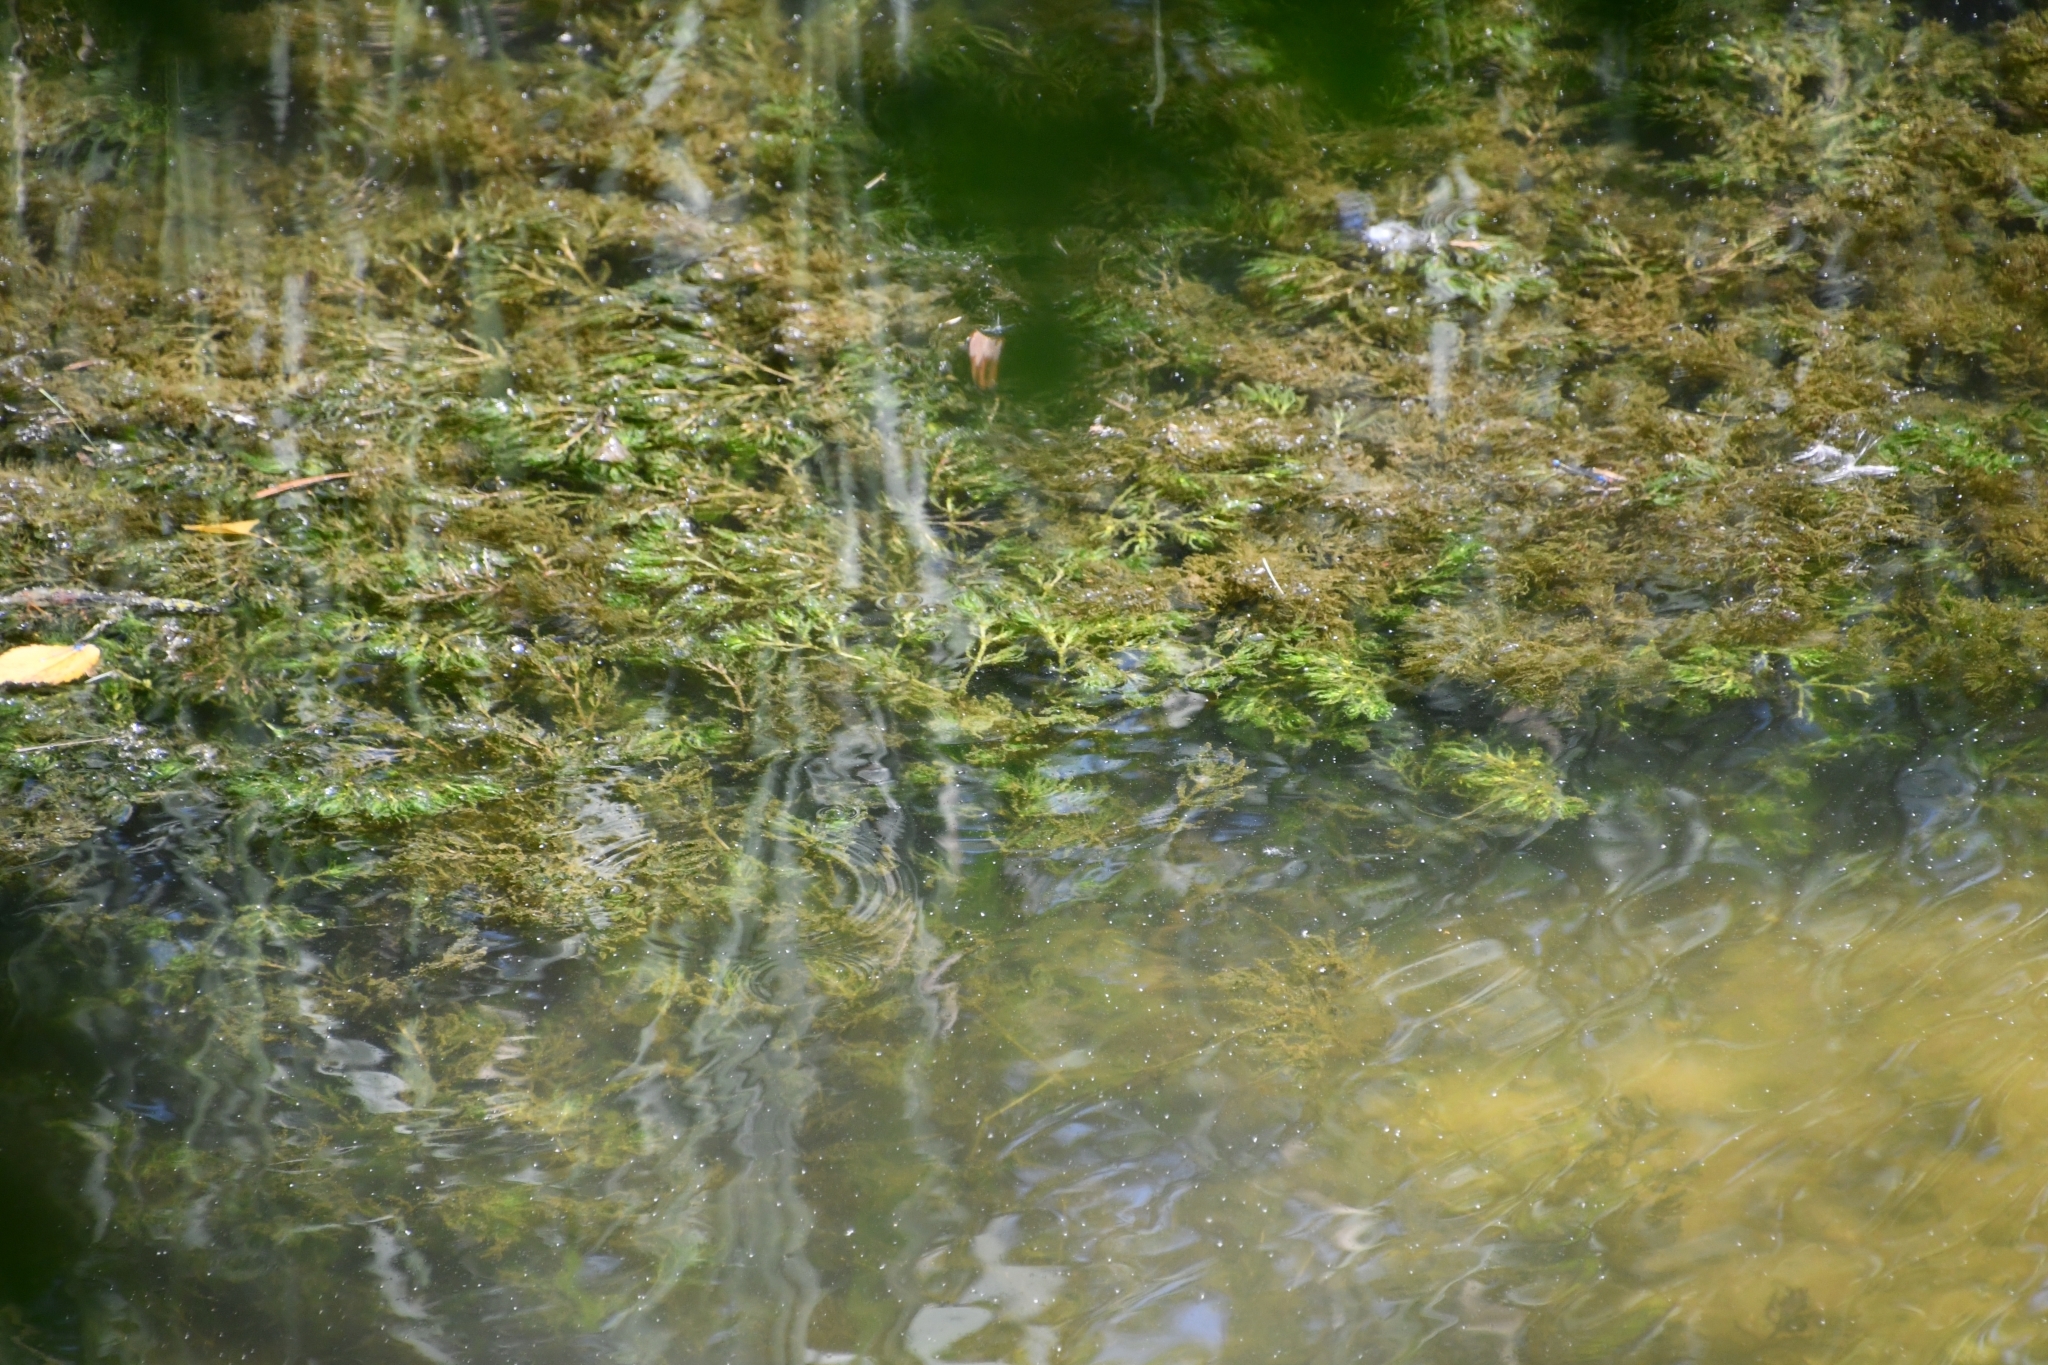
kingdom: Plantae
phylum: Tracheophyta
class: Liliopsida
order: Alismatales
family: Hydrocharitaceae
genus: Najas
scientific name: Najas marina
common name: Holly-leaved naiad
